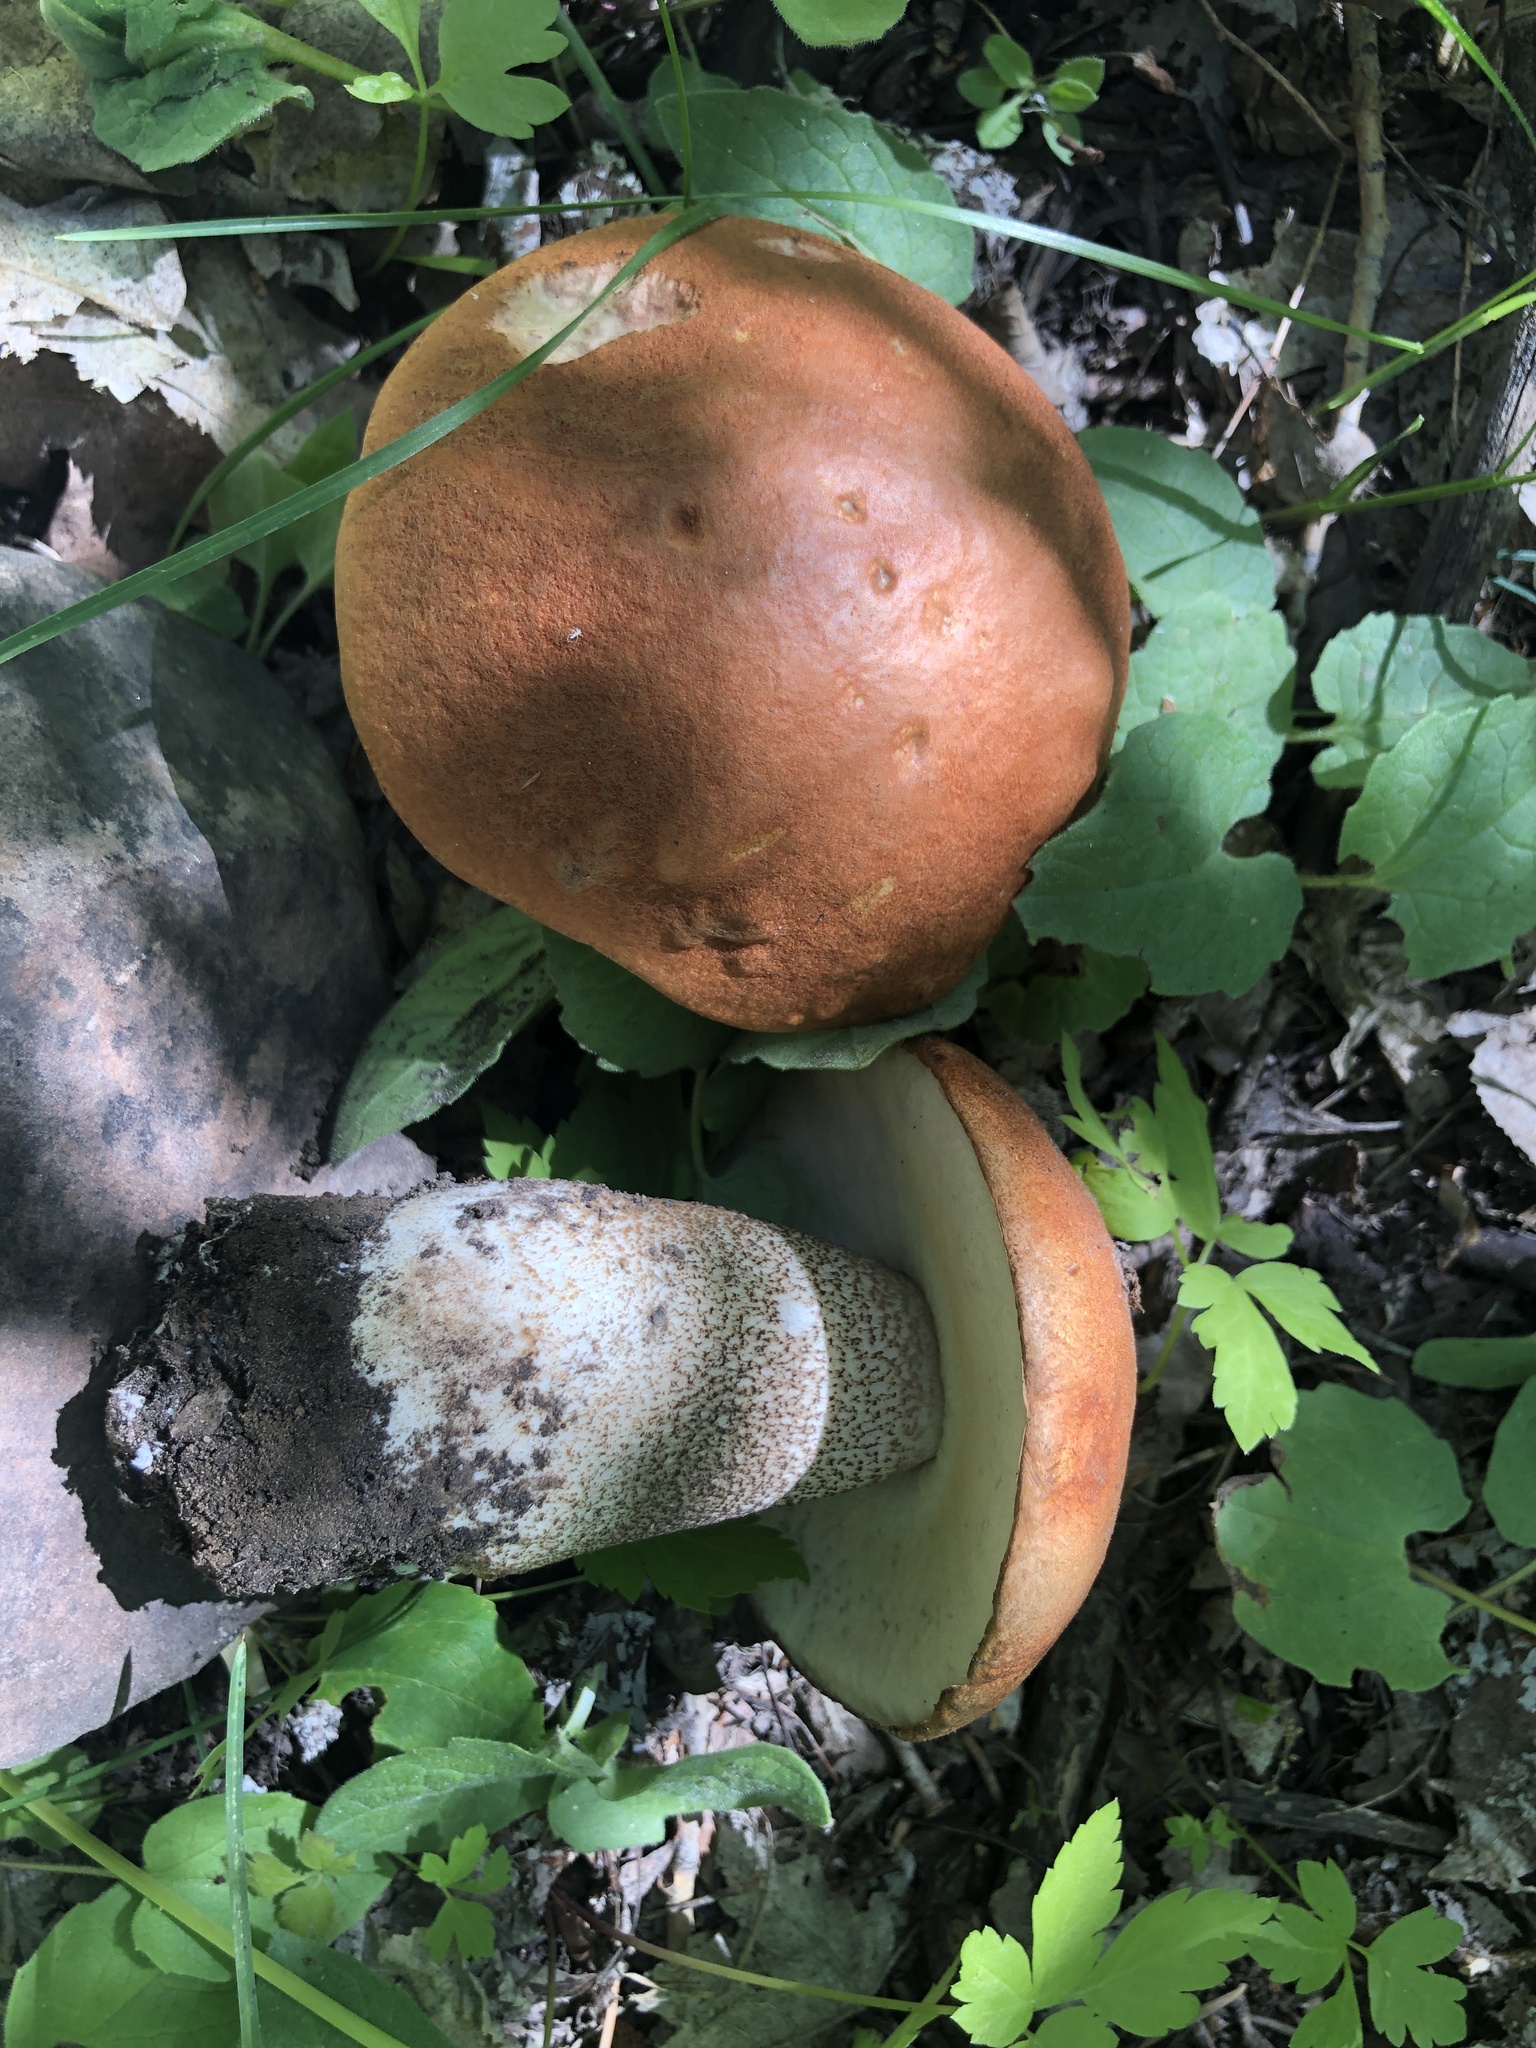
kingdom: Fungi
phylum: Basidiomycota
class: Agaricomycetes
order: Boletales
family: Boletaceae
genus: Leccinum
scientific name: Leccinum insigne
